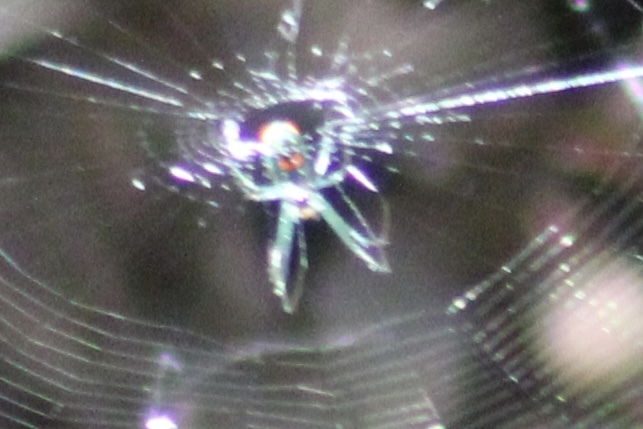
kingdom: Animalia
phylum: Arthropoda
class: Arachnida
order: Araneae
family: Tetragnathidae
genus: Leucauge
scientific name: Leucauge argyrobapta
